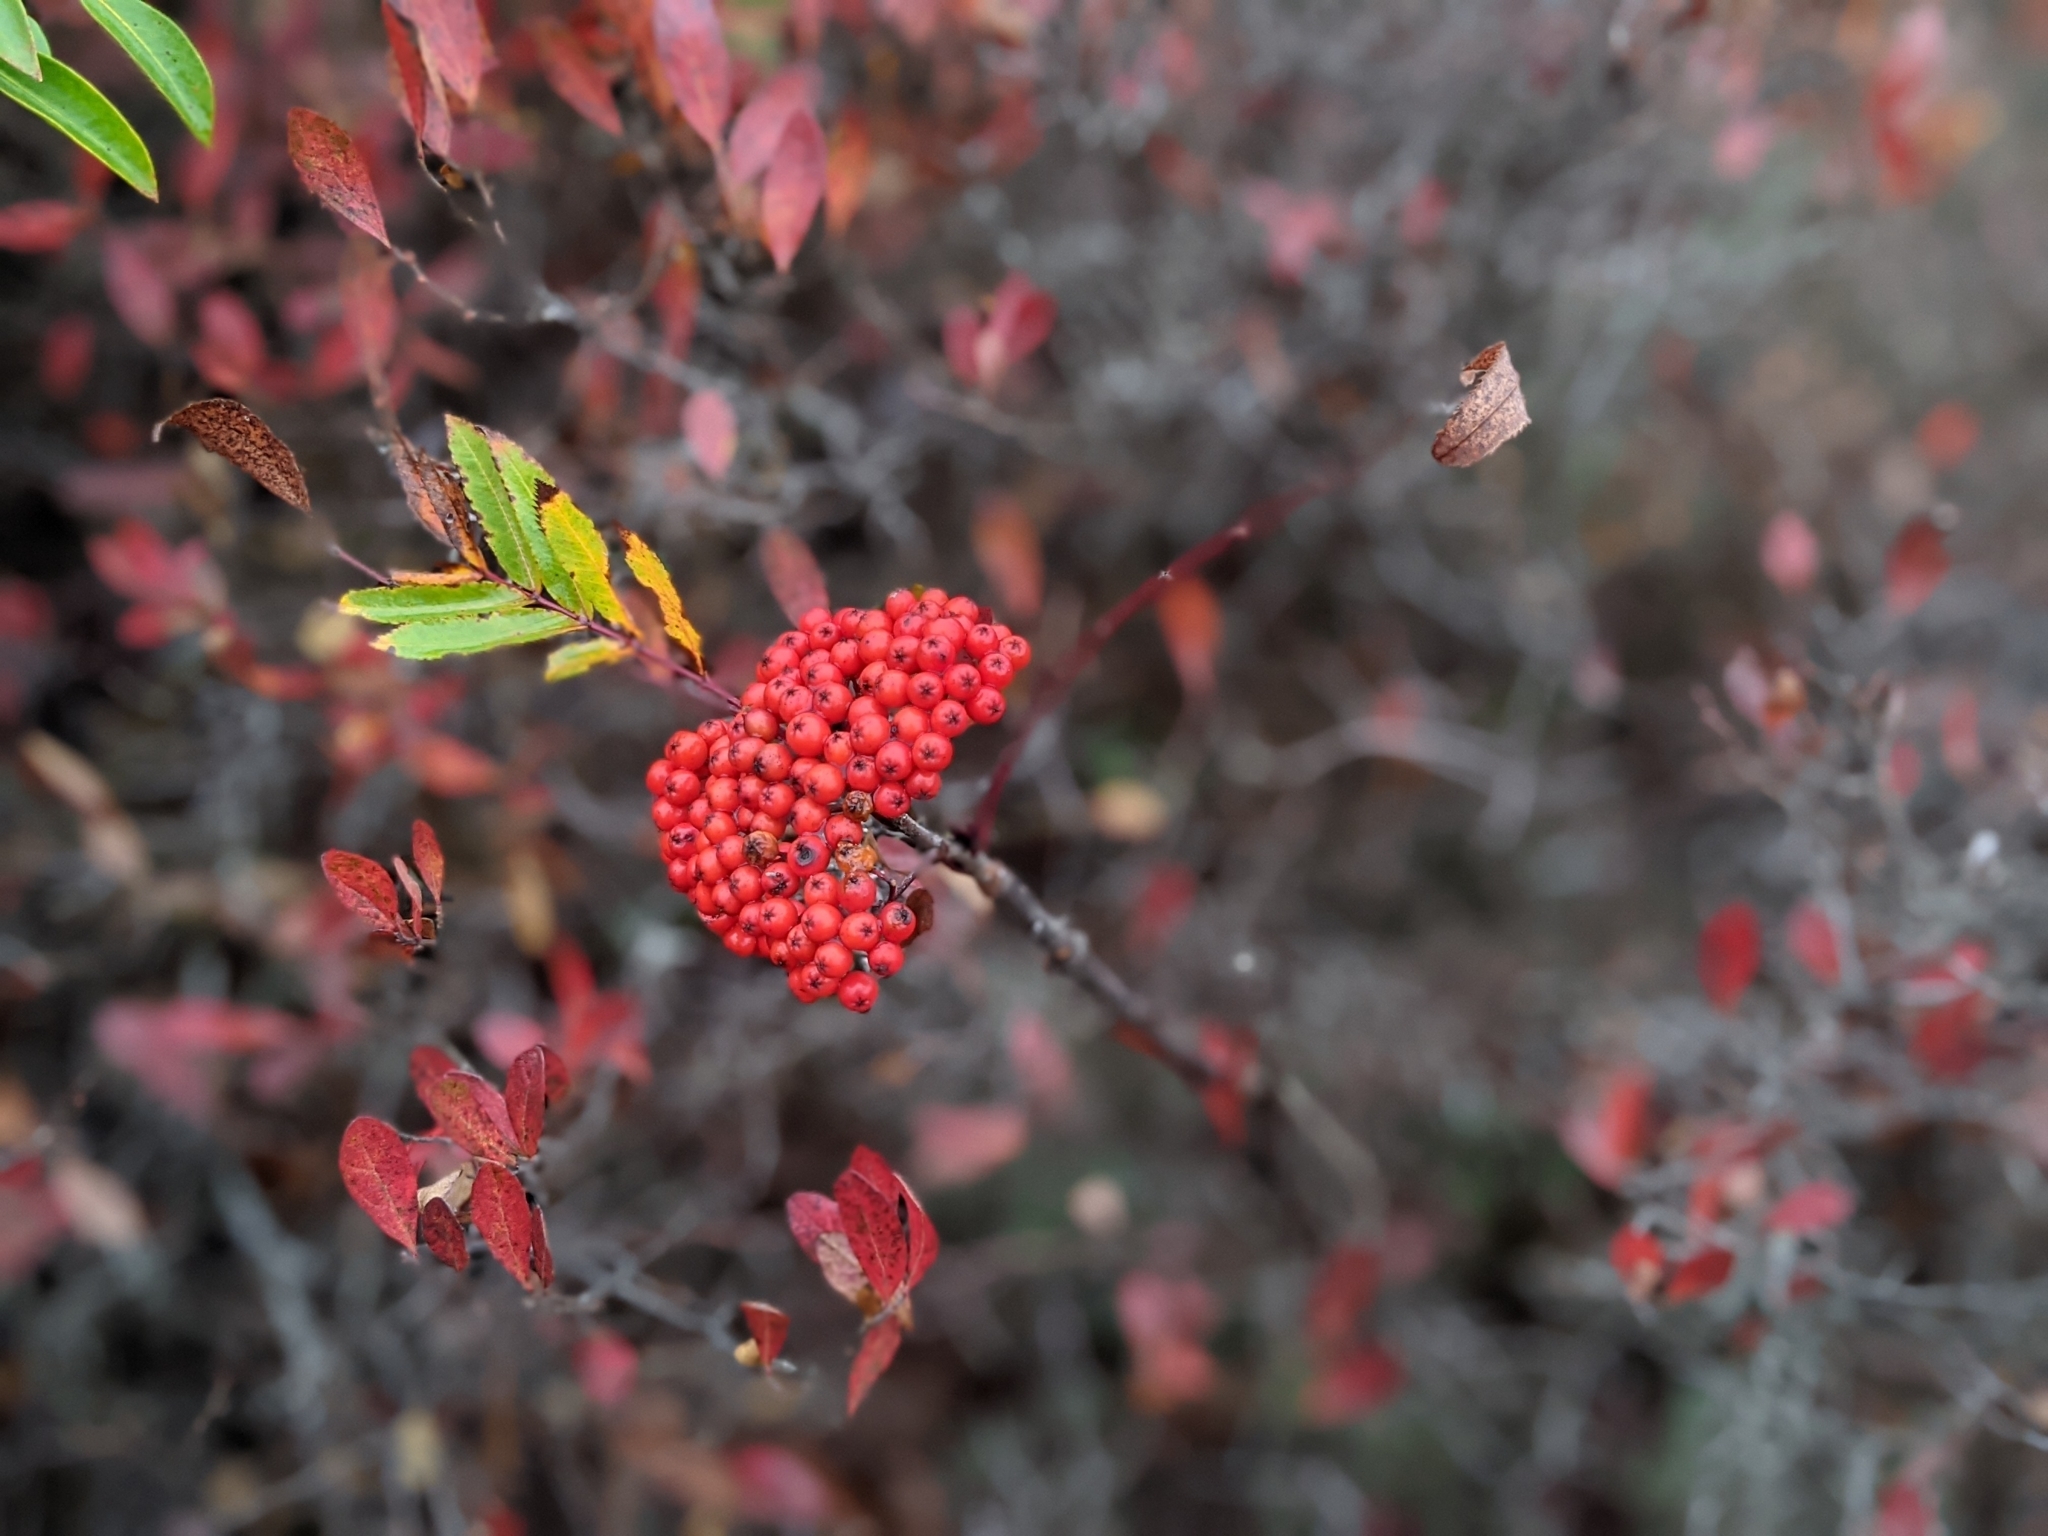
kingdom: Plantae
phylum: Tracheophyta
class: Magnoliopsida
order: Rosales
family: Rosaceae
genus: Sorbus
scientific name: Sorbus americana
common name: American mountain-ash
